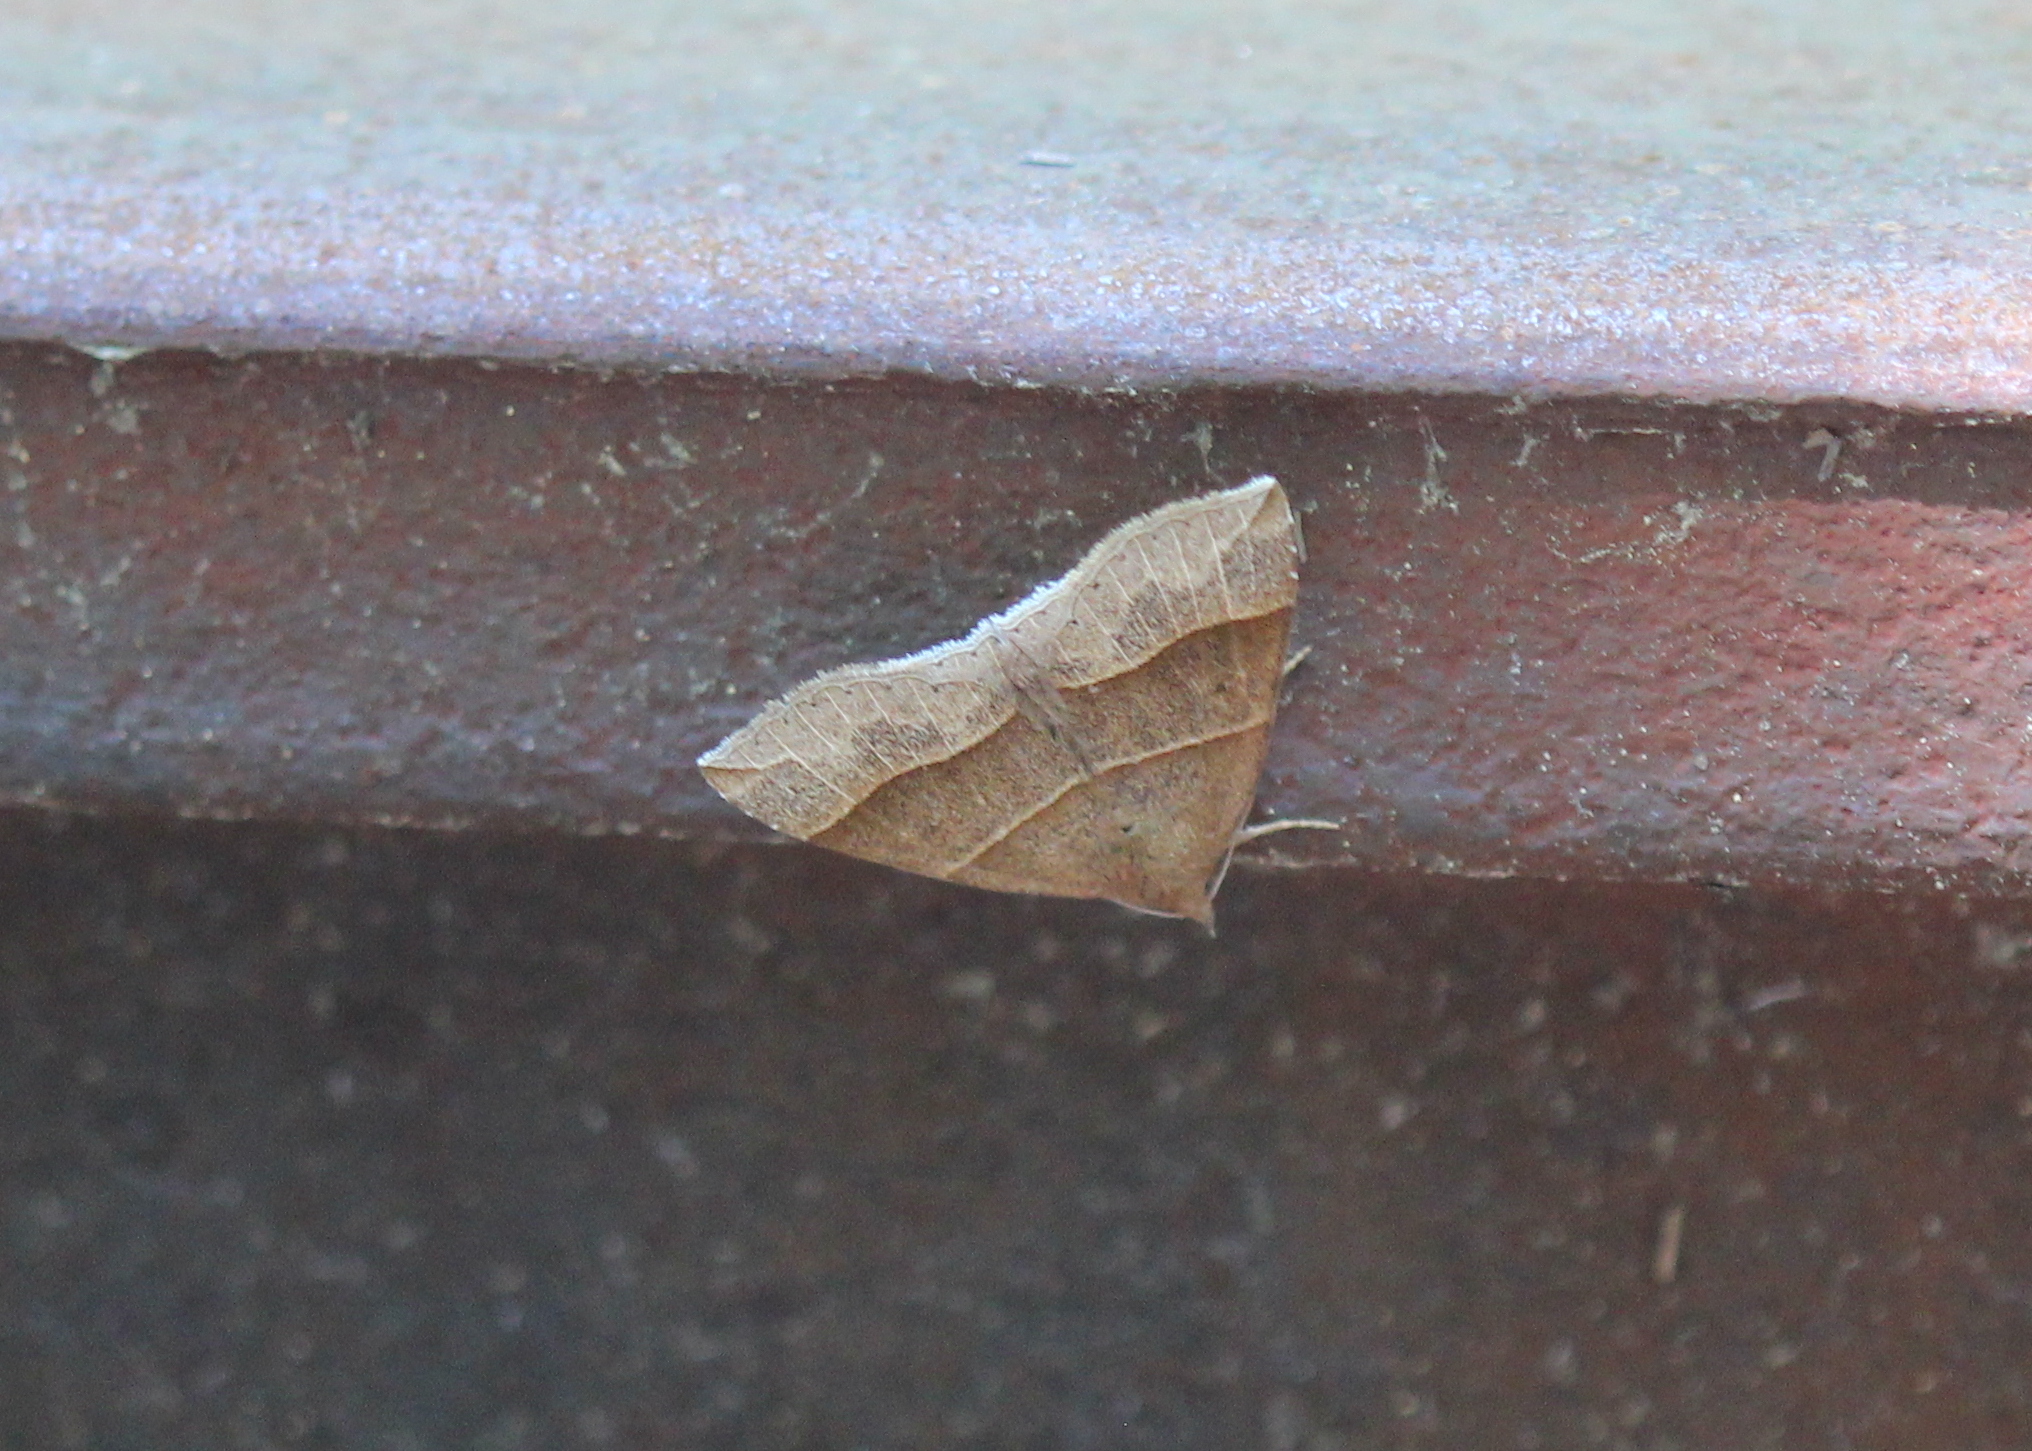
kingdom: Animalia
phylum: Arthropoda
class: Insecta
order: Lepidoptera
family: Erebidae
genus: Parallelia
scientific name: Parallelia bistriaris
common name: Maple looper moth
